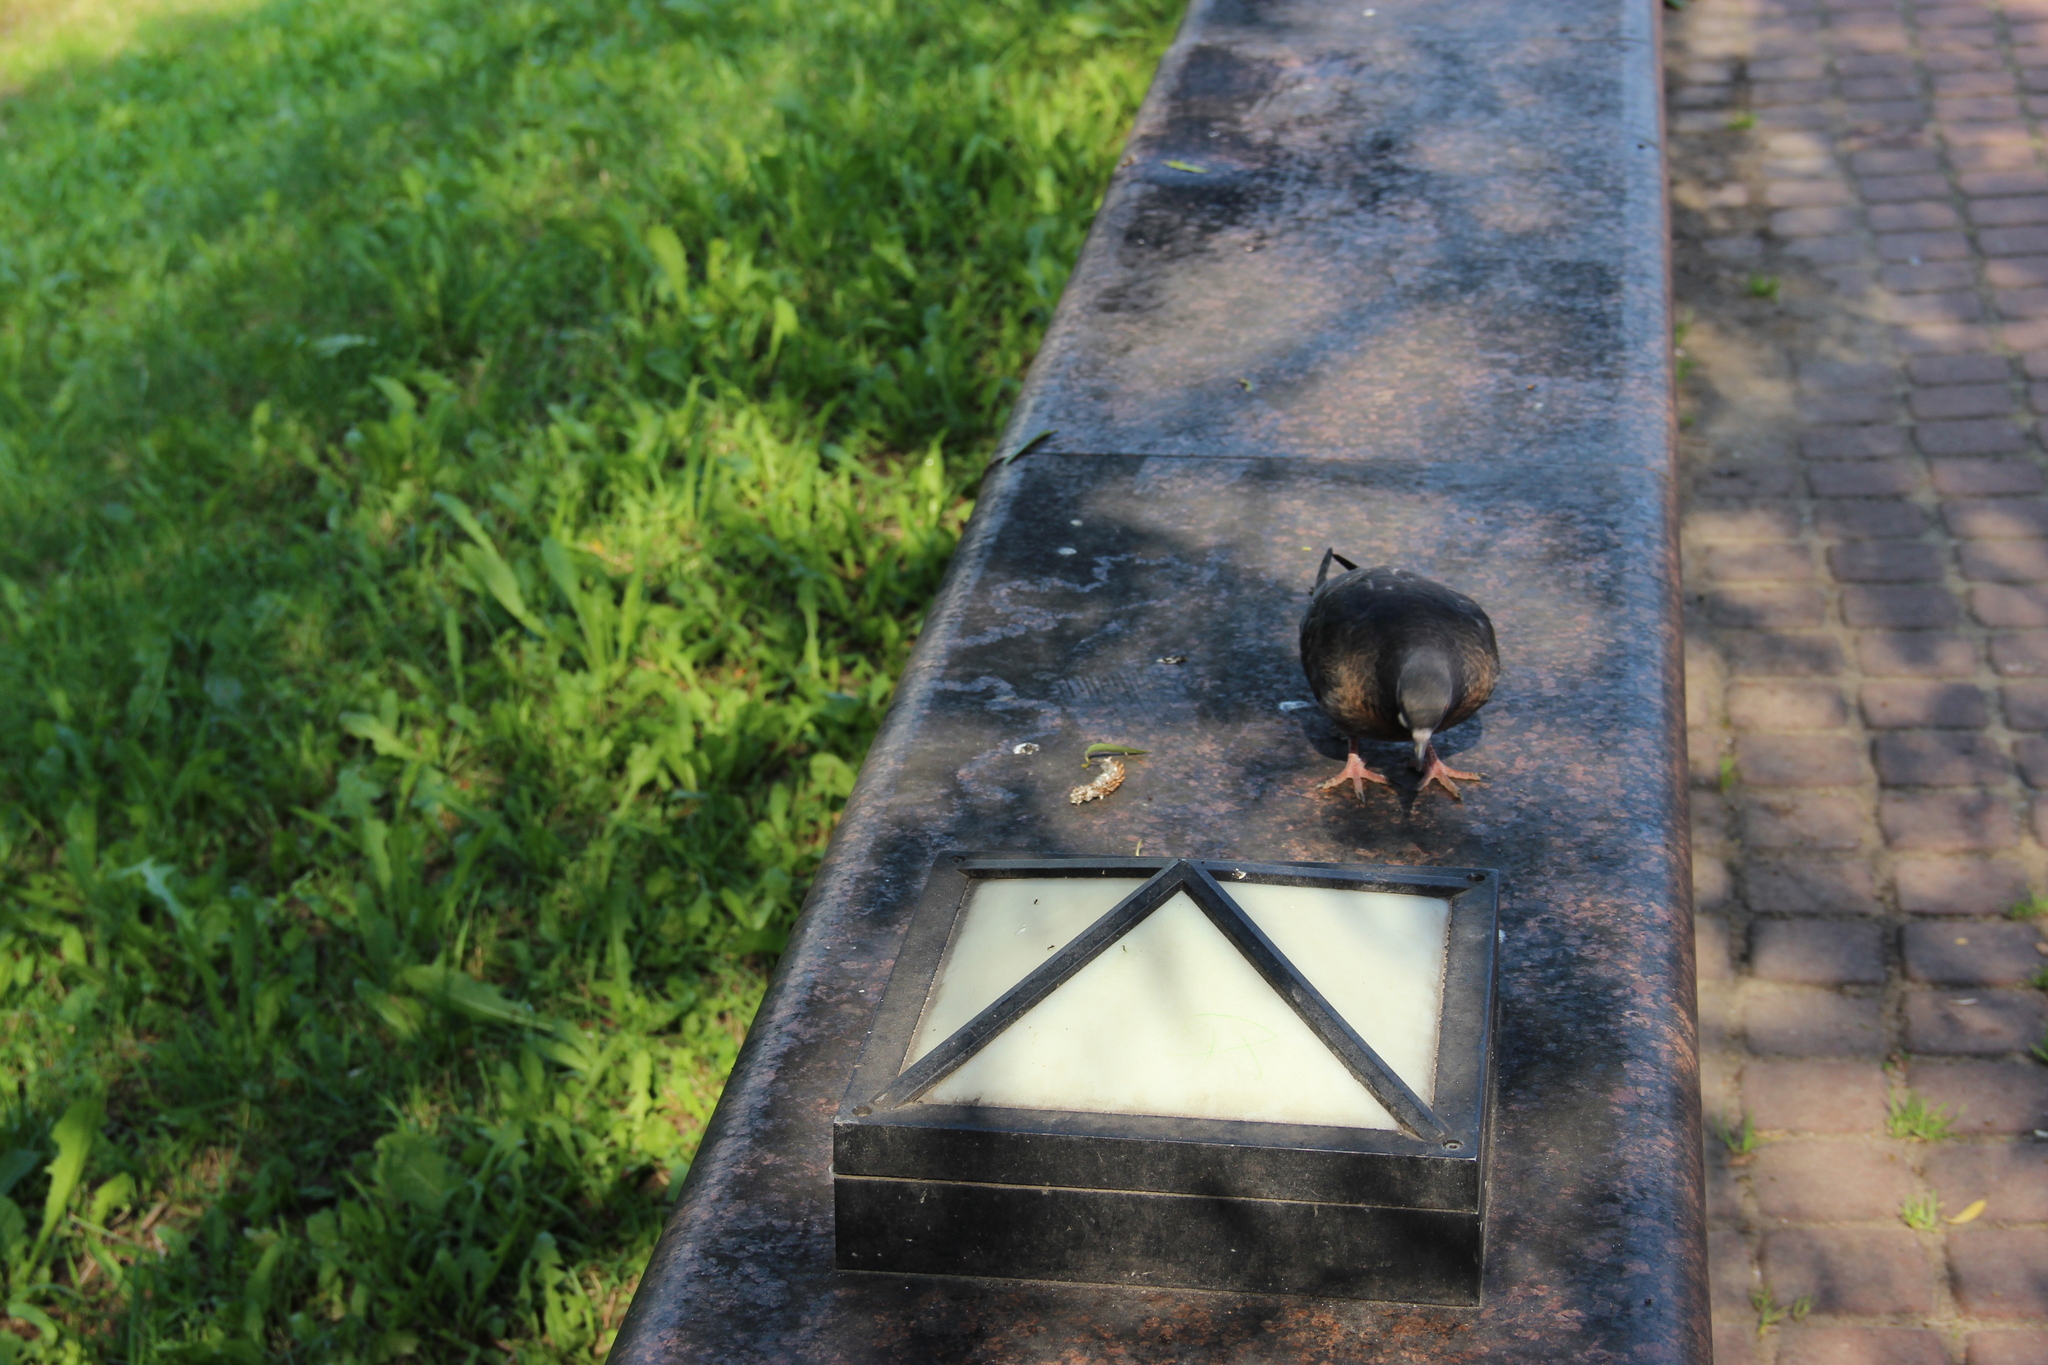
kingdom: Animalia
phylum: Chordata
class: Aves
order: Columbiformes
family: Columbidae
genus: Columba
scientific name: Columba livia
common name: Rock pigeon
